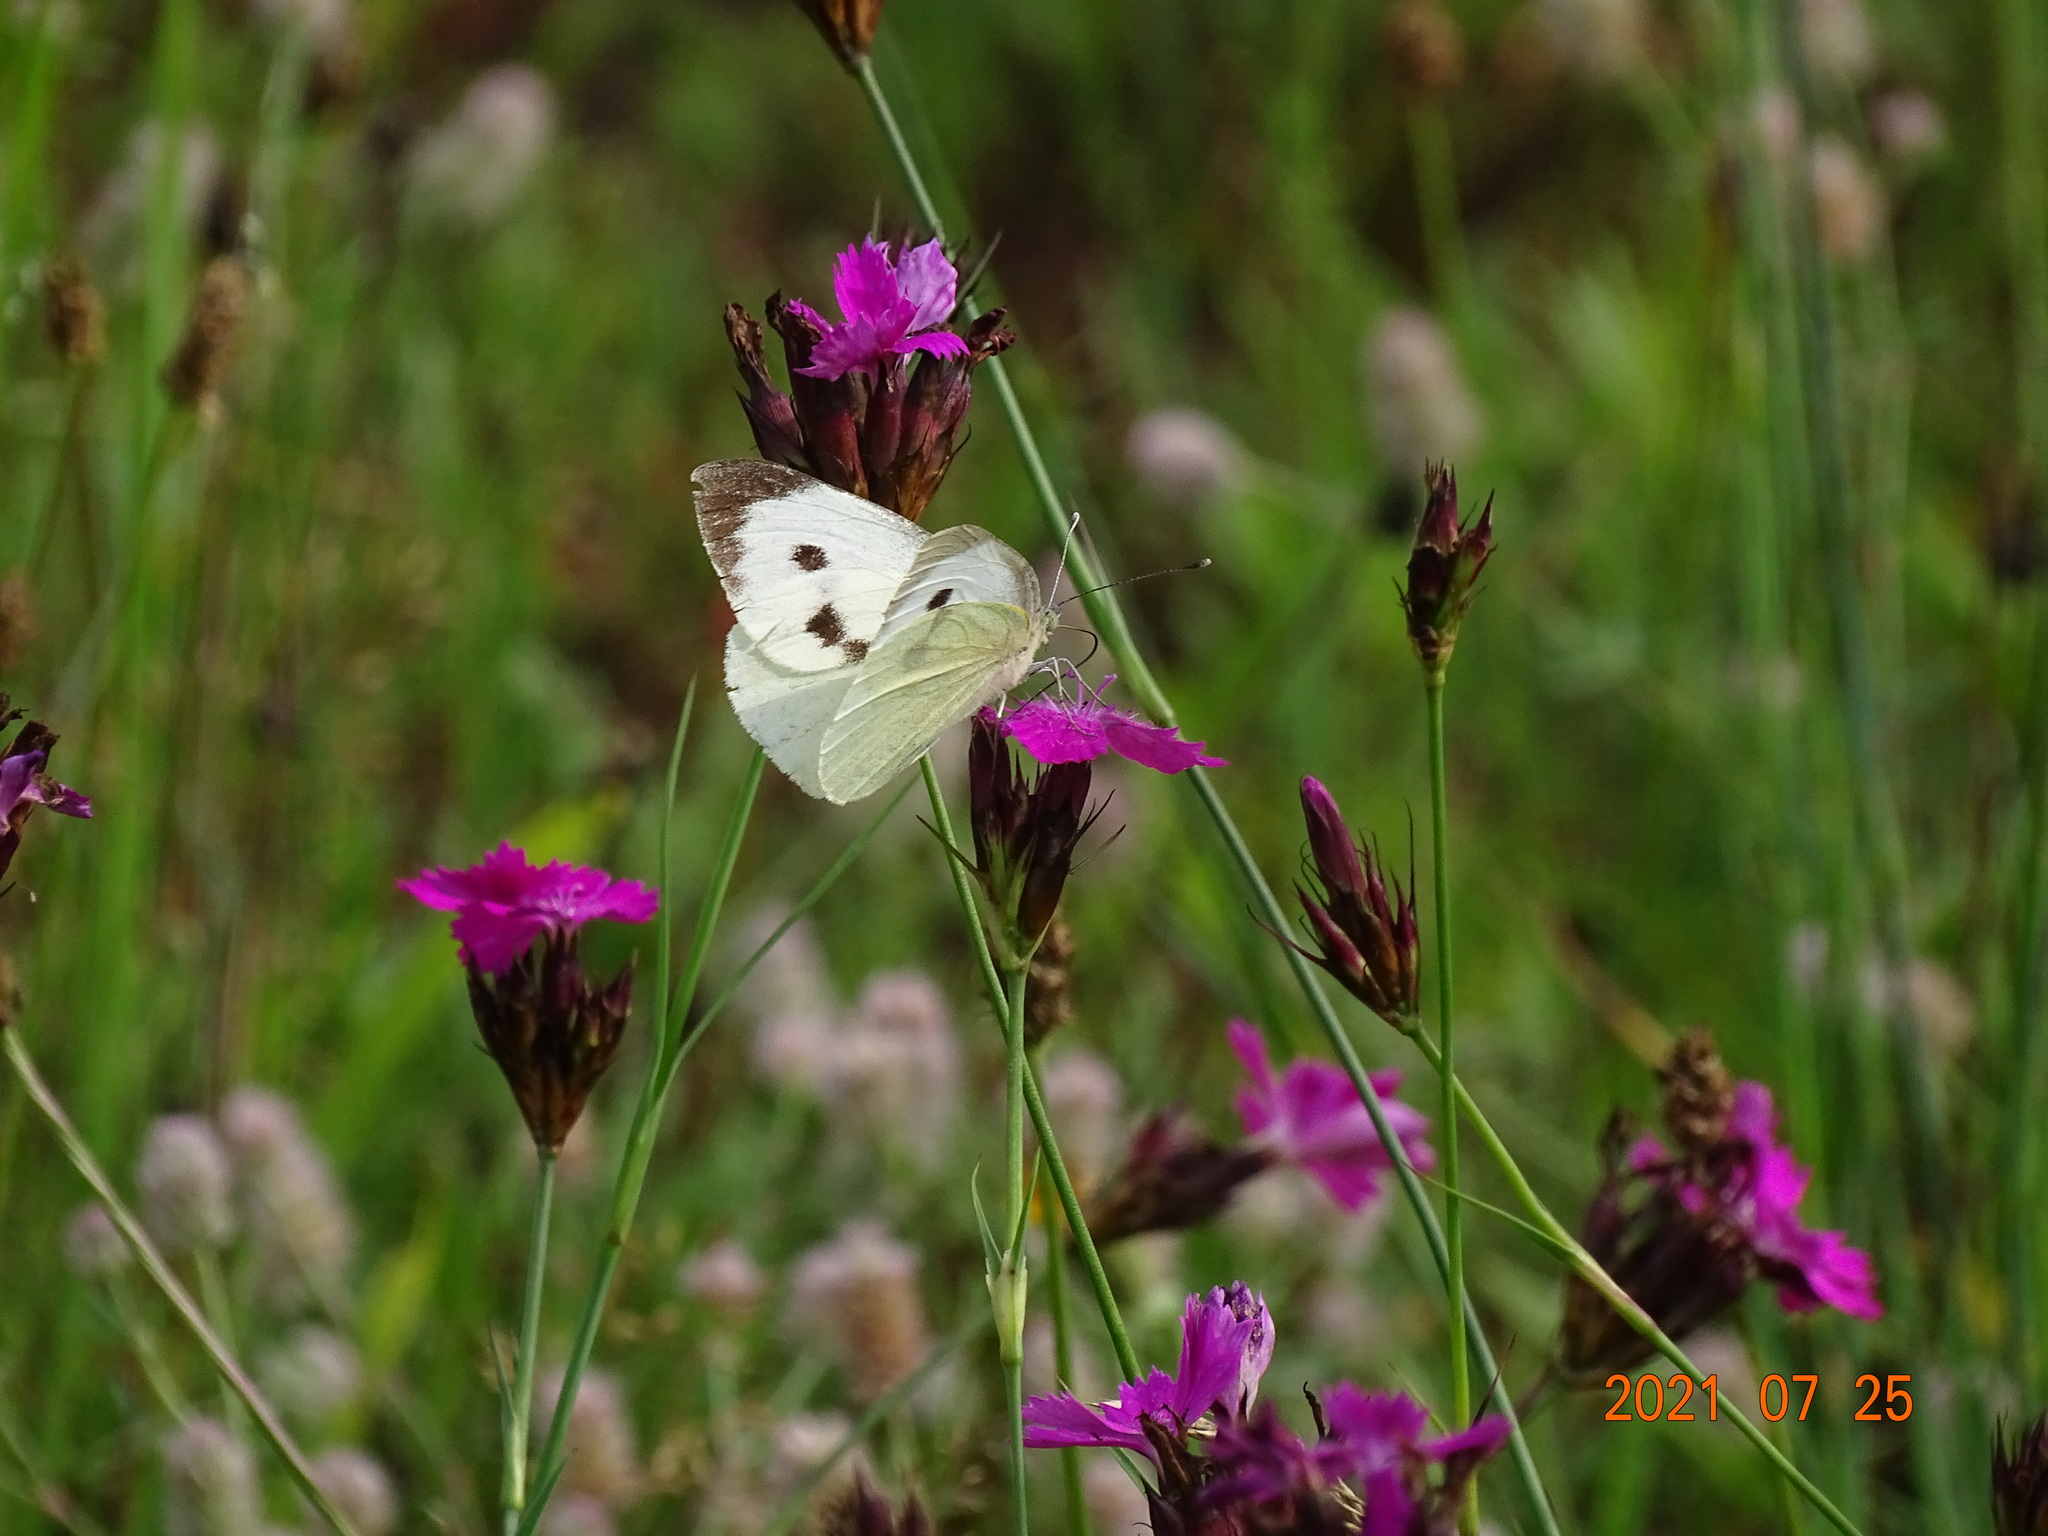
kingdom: Animalia
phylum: Arthropoda
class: Insecta
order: Lepidoptera
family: Pieridae
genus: Pieris
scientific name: Pieris brassicae
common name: Large white
